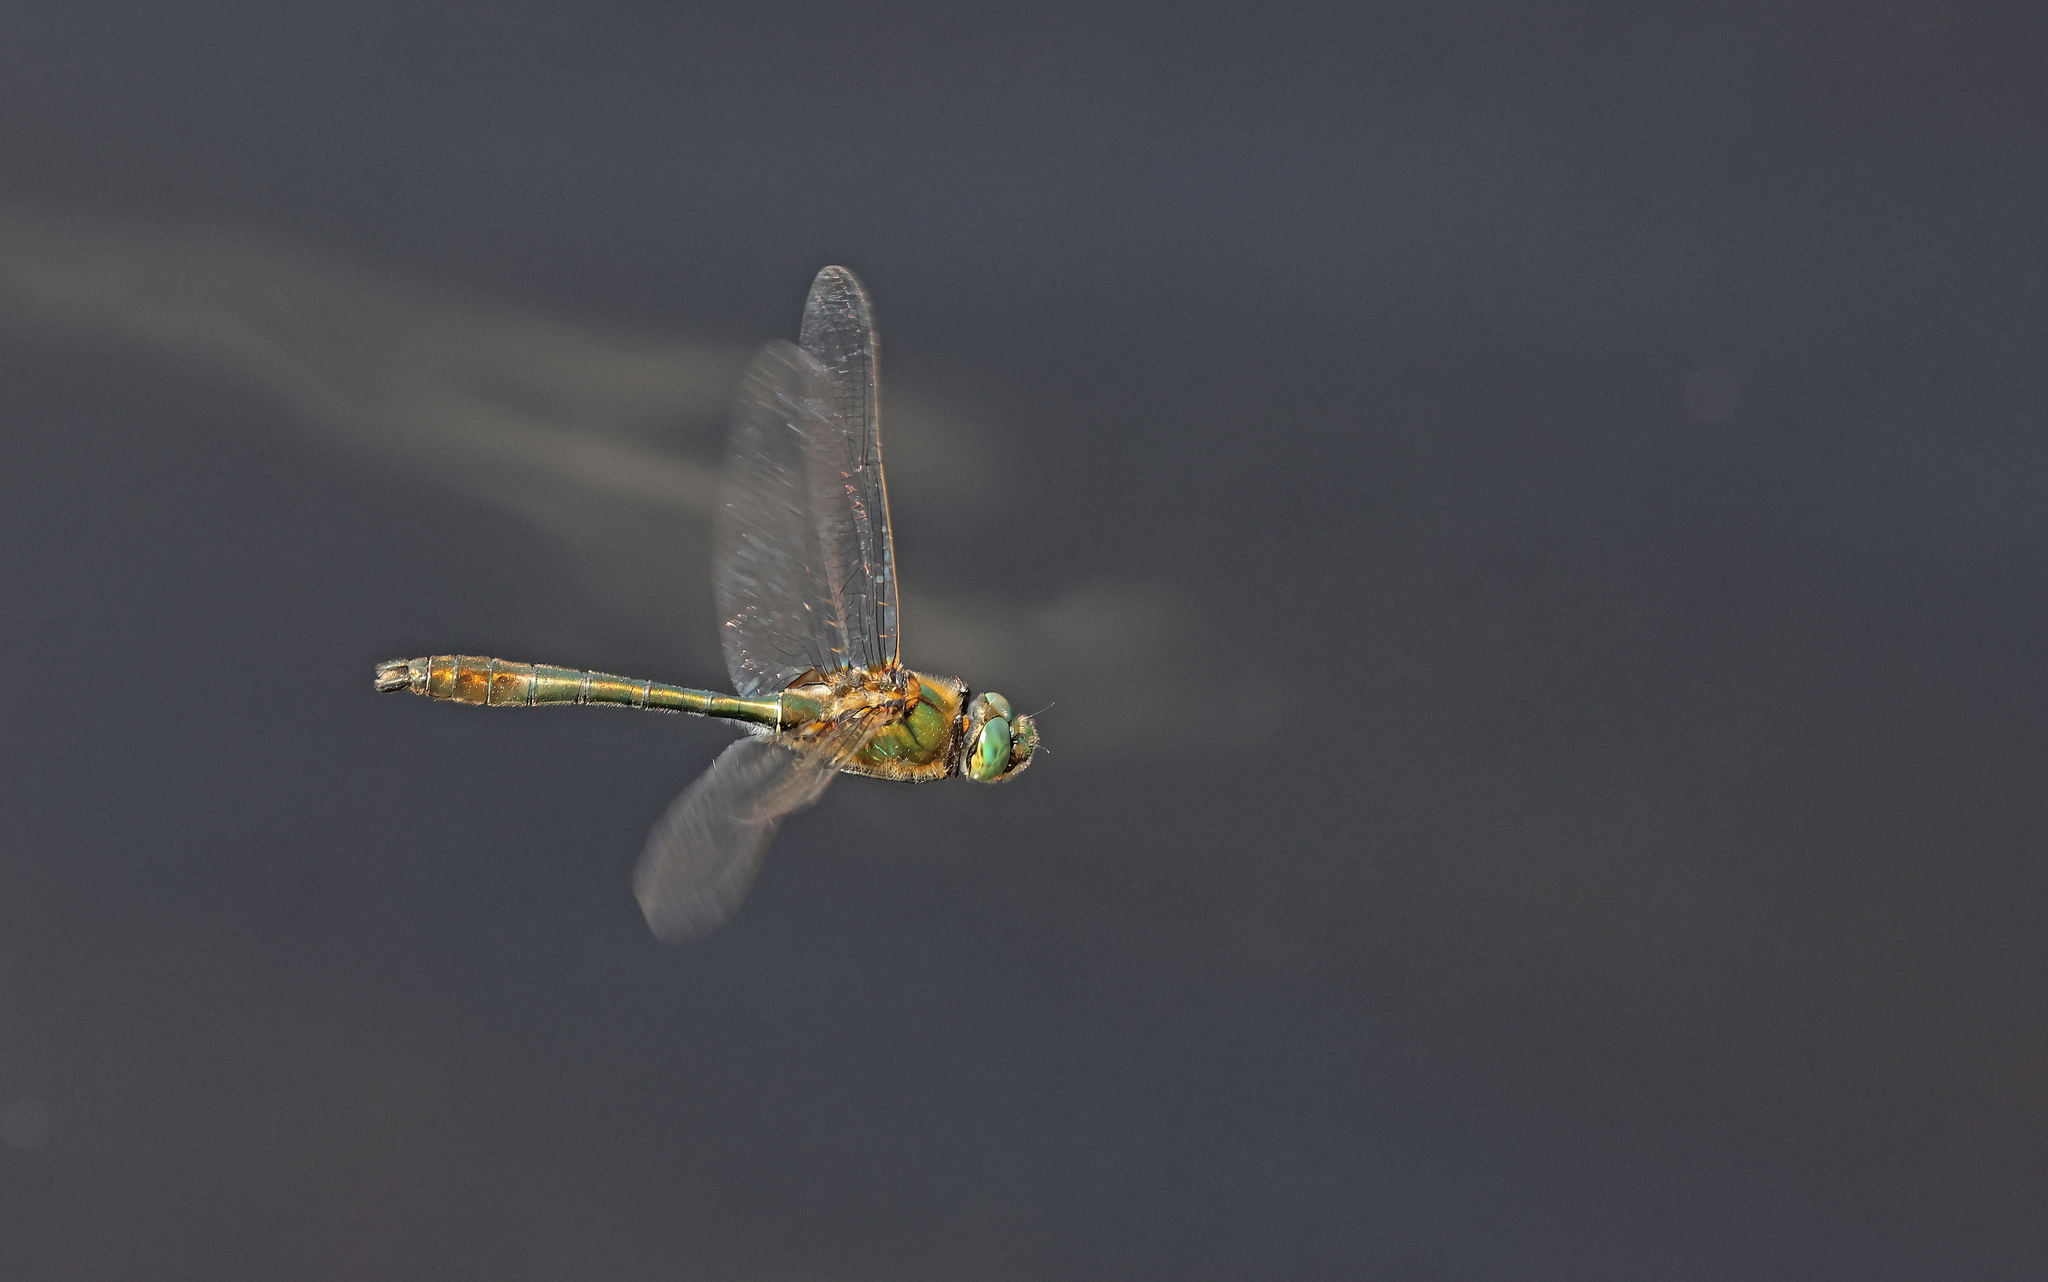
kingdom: Animalia
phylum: Arthropoda
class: Insecta
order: Odonata
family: Corduliidae
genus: Cordulia
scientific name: Cordulia aenea
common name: Downy emerald
